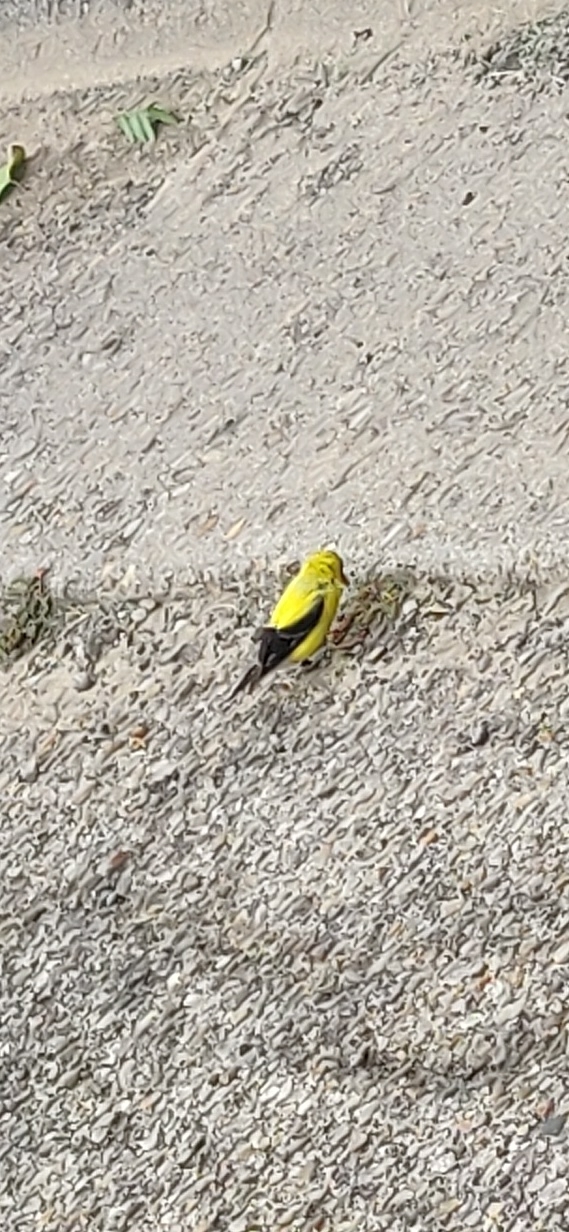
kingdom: Animalia
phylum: Chordata
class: Aves
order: Passeriformes
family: Fringillidae
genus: Spinus
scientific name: Spinus tristis
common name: American goldfinch
